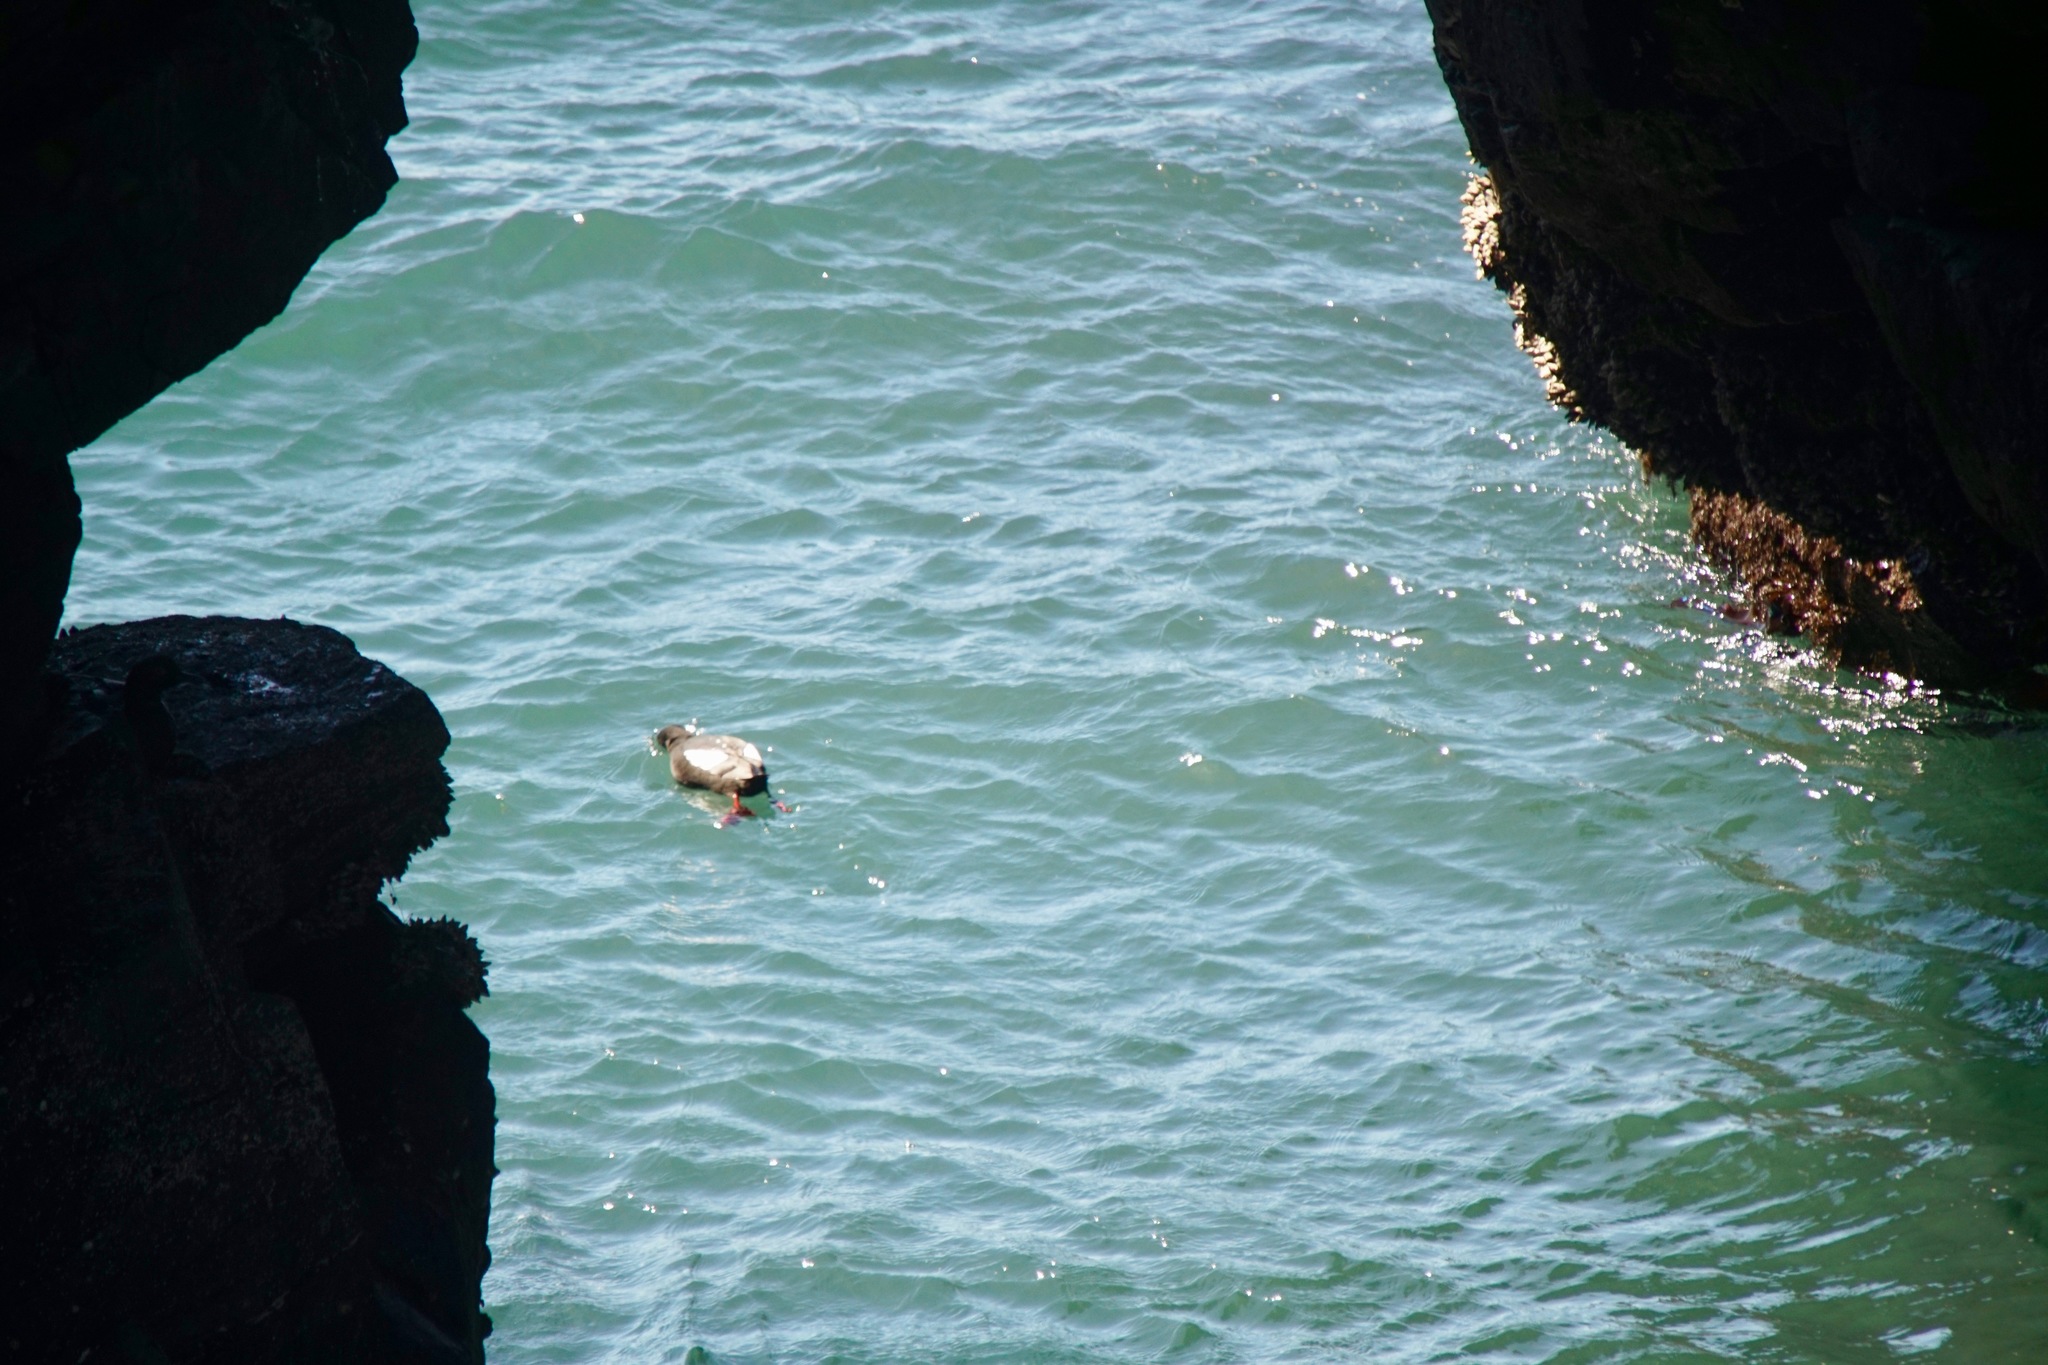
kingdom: Animalia
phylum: Chordata
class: Aves
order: Charadriiformes
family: Alcidae
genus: Cepphus
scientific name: Cepphus columba
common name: Pigeon guillemot
